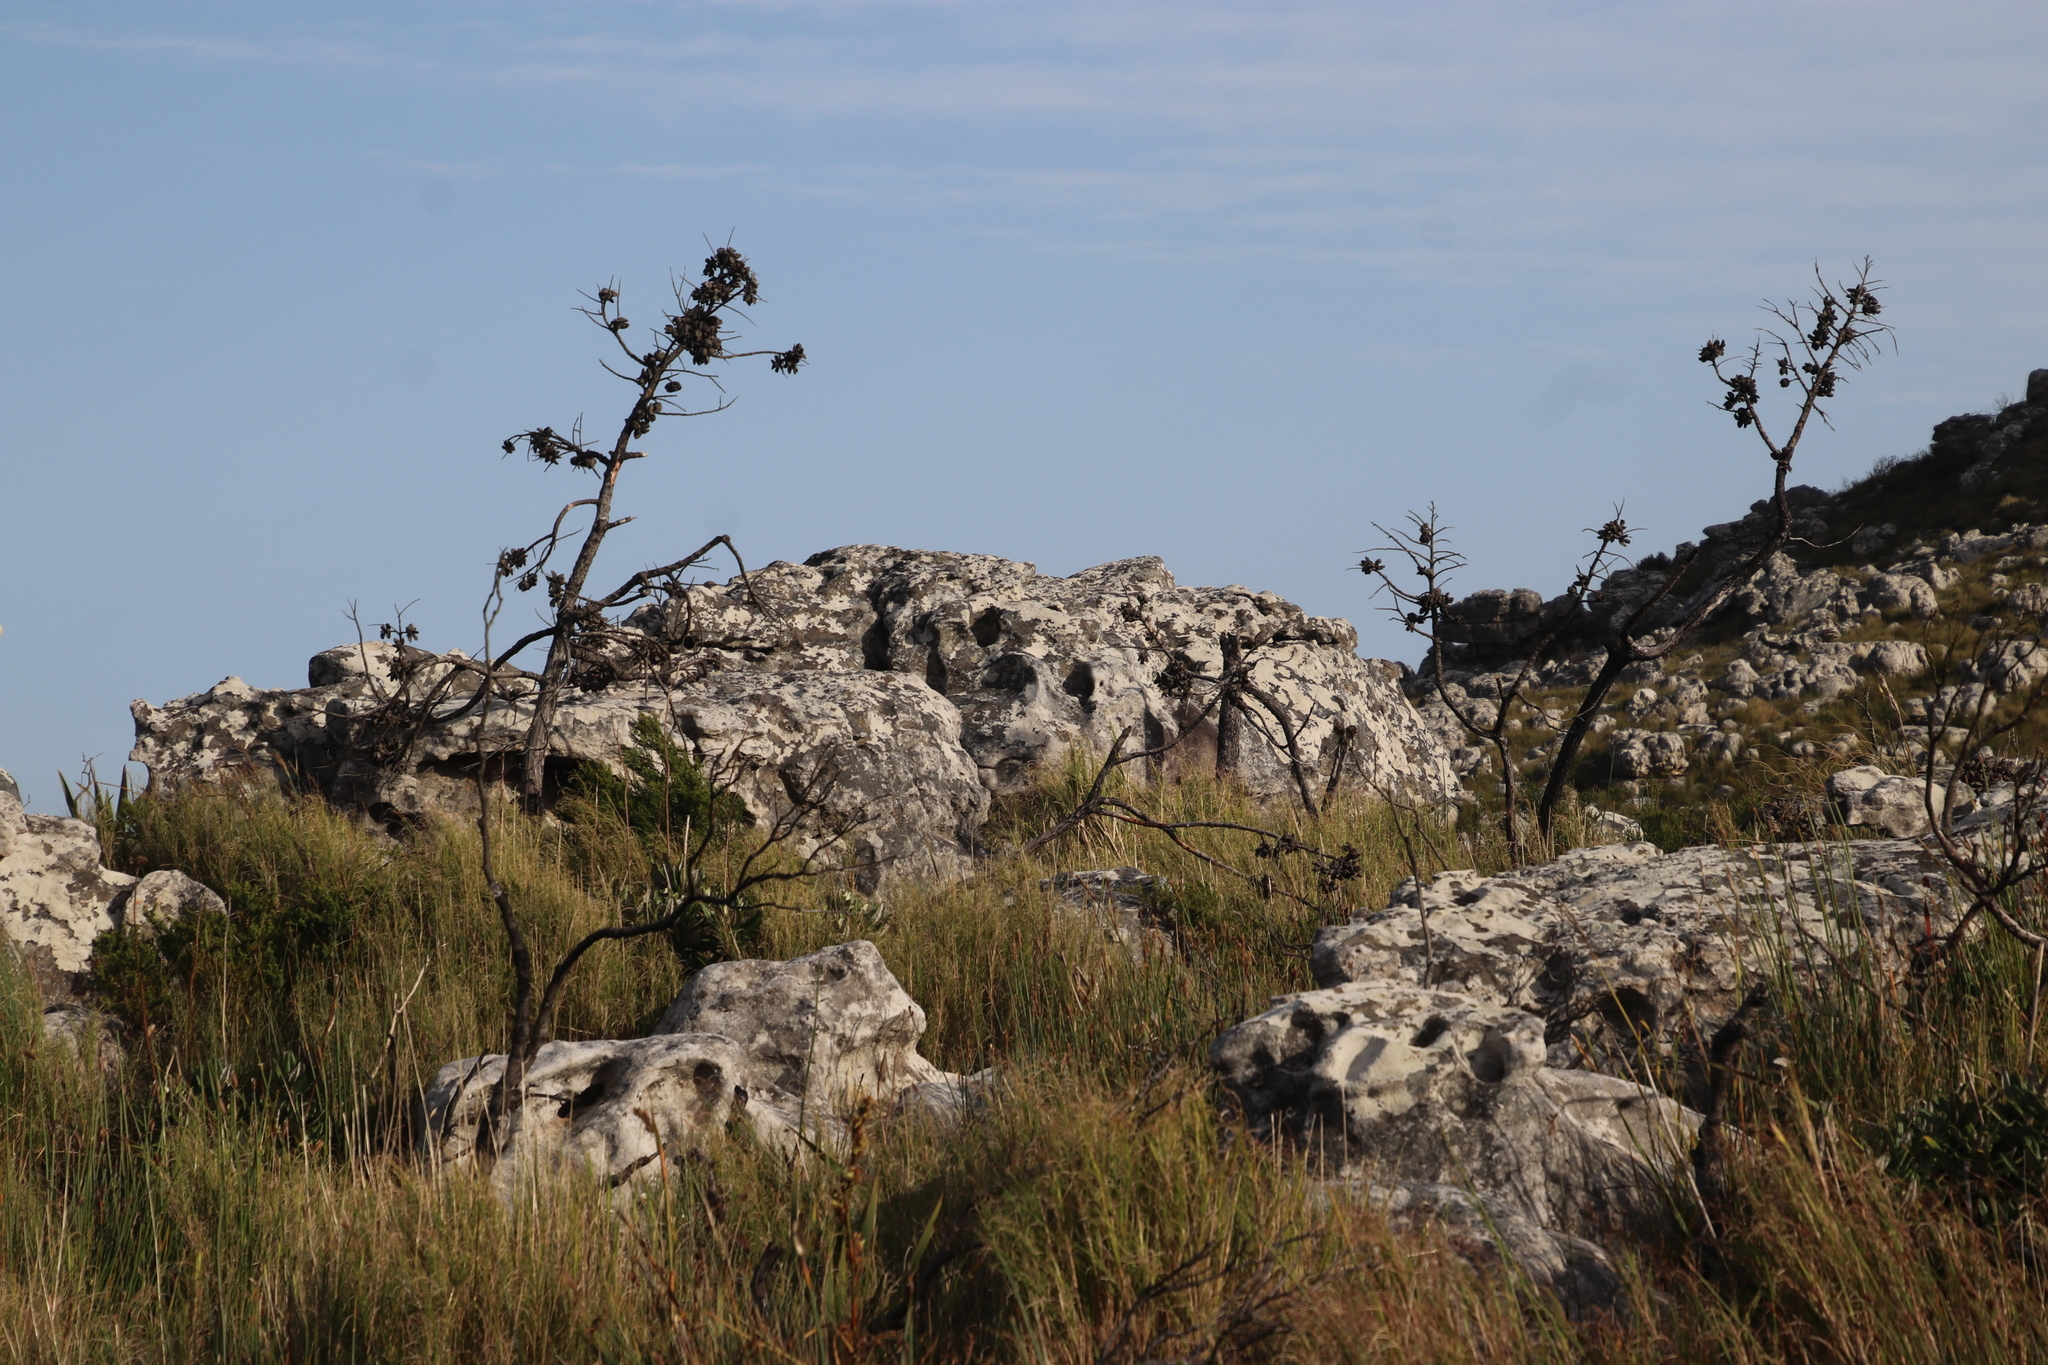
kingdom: Plantae
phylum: Tracheophyta
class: Pinopsida
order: Pinales
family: Cupressaceae
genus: Widdringtonia
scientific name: Widdringtonia nodiflora
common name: Cape cypress
